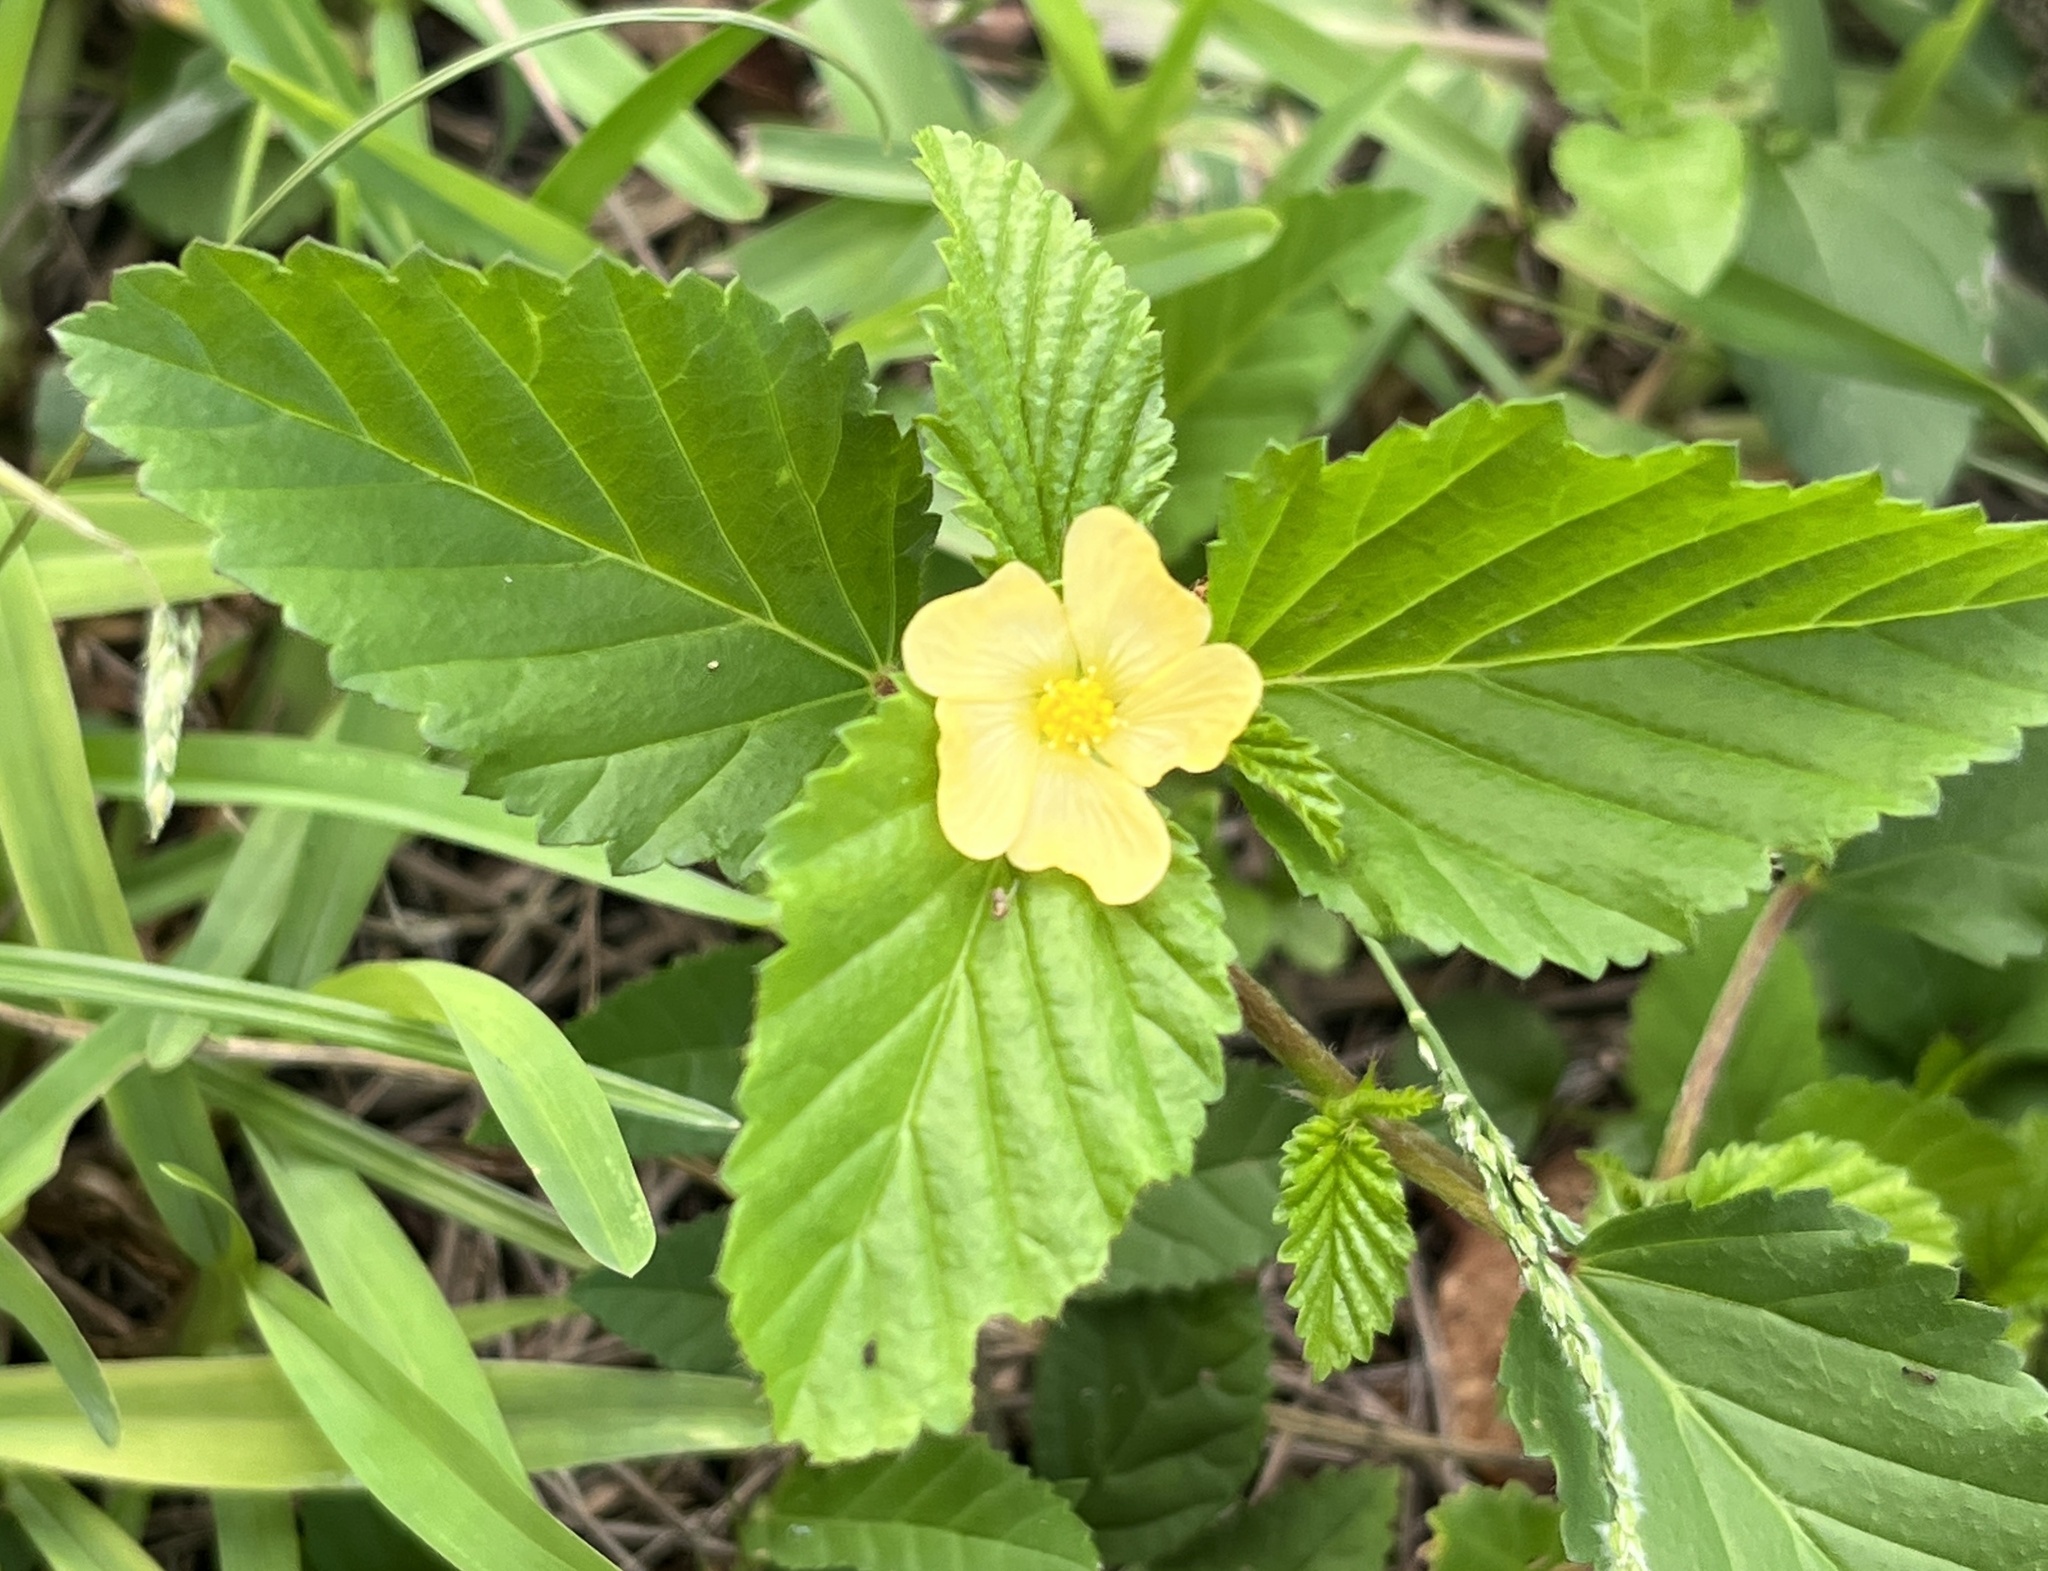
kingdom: Plantae
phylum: Tracheophyta
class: Magnoliopsida
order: Malvales
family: Malvaceae
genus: Malvastrum
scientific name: Malvastrum coromandelianum
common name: Threelobe false mallow
